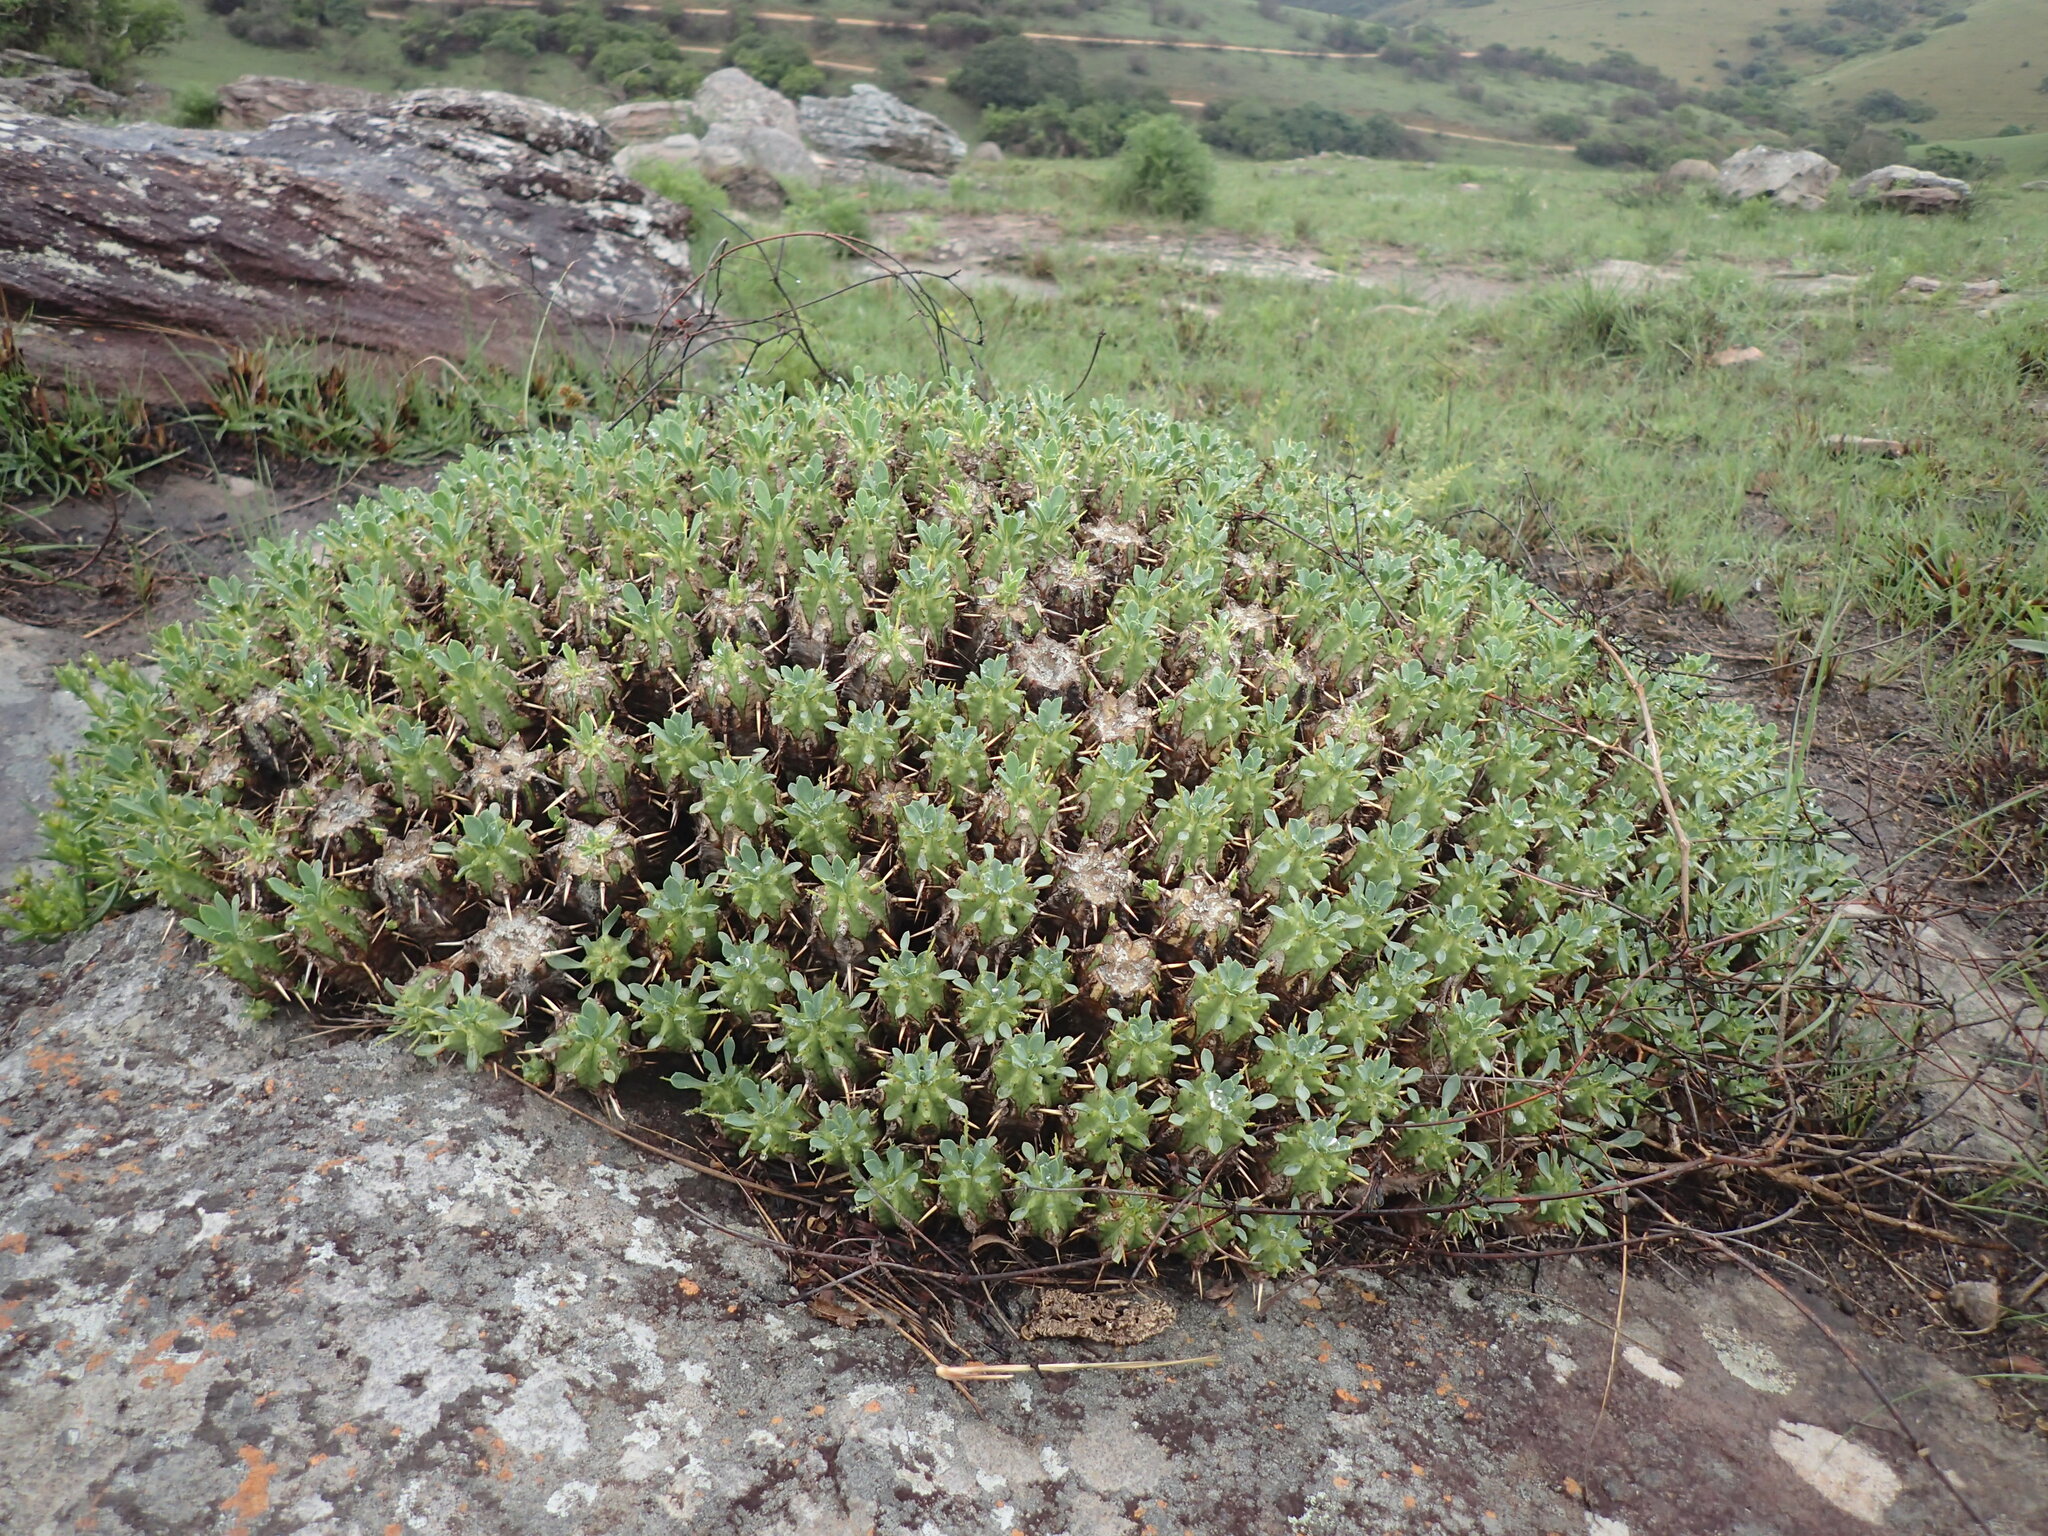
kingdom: Plantae
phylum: Tracheophyta
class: Magnoliopsida
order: Malpighiales
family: Euphorbiaceae
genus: Euphorbia
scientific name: Euphorbia pulvinata
